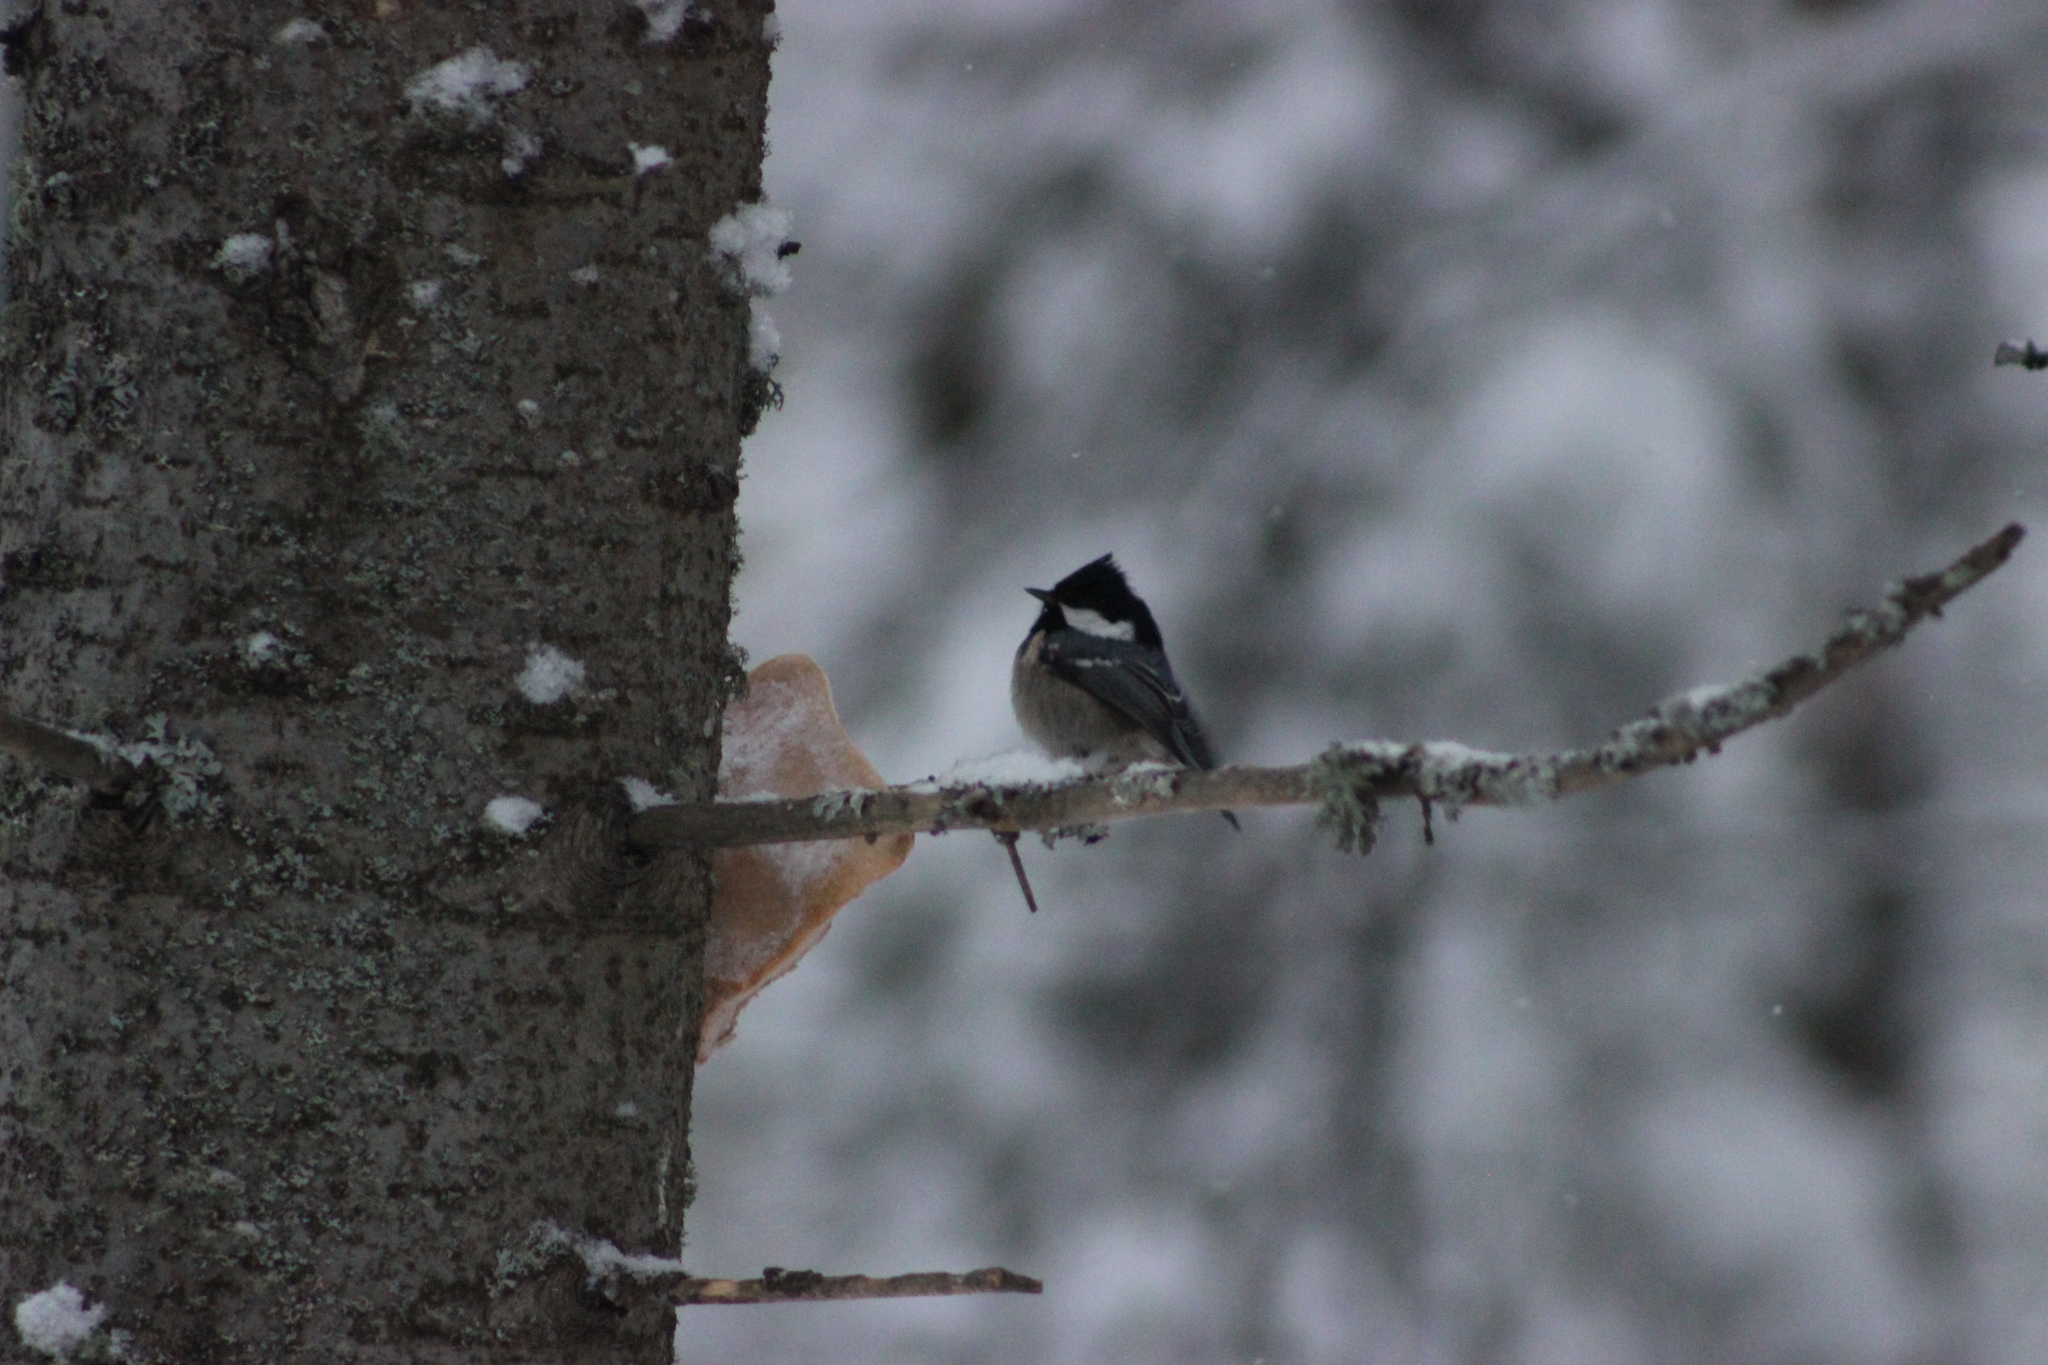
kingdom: Animalia
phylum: Chordata
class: Aves
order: Passeriformes
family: Paridae
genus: Periparus
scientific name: Periparus ater
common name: Coal tit
